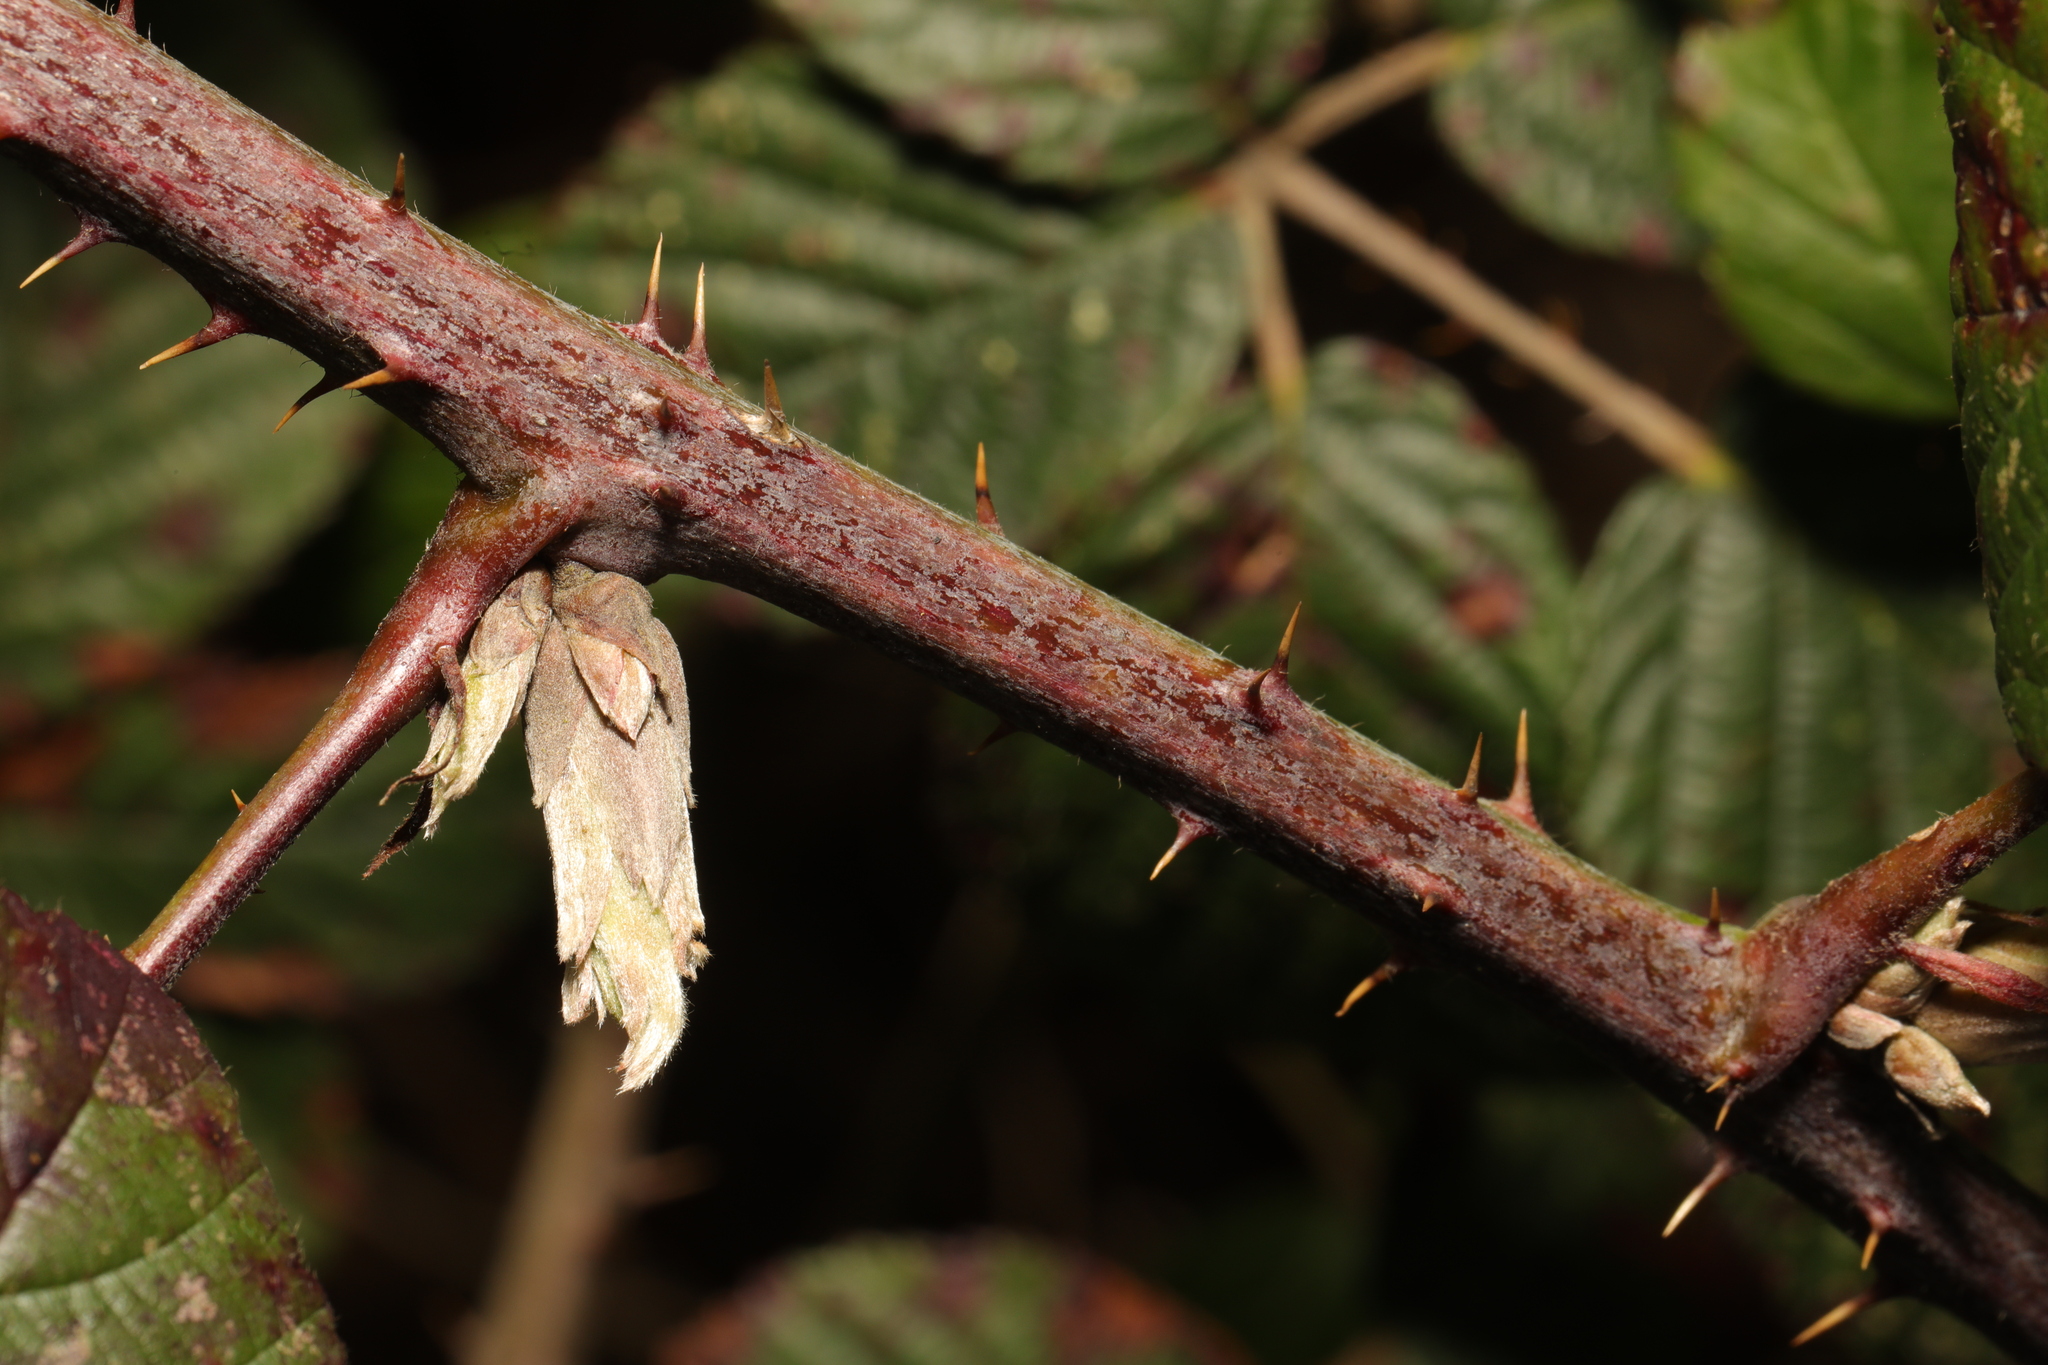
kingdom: Plantae
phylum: Tracheophyta
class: Magnoliopsida
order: Rosales
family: Rosaceae
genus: Rubus
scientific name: Rubus fruticosus
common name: Blackberry, bramble
